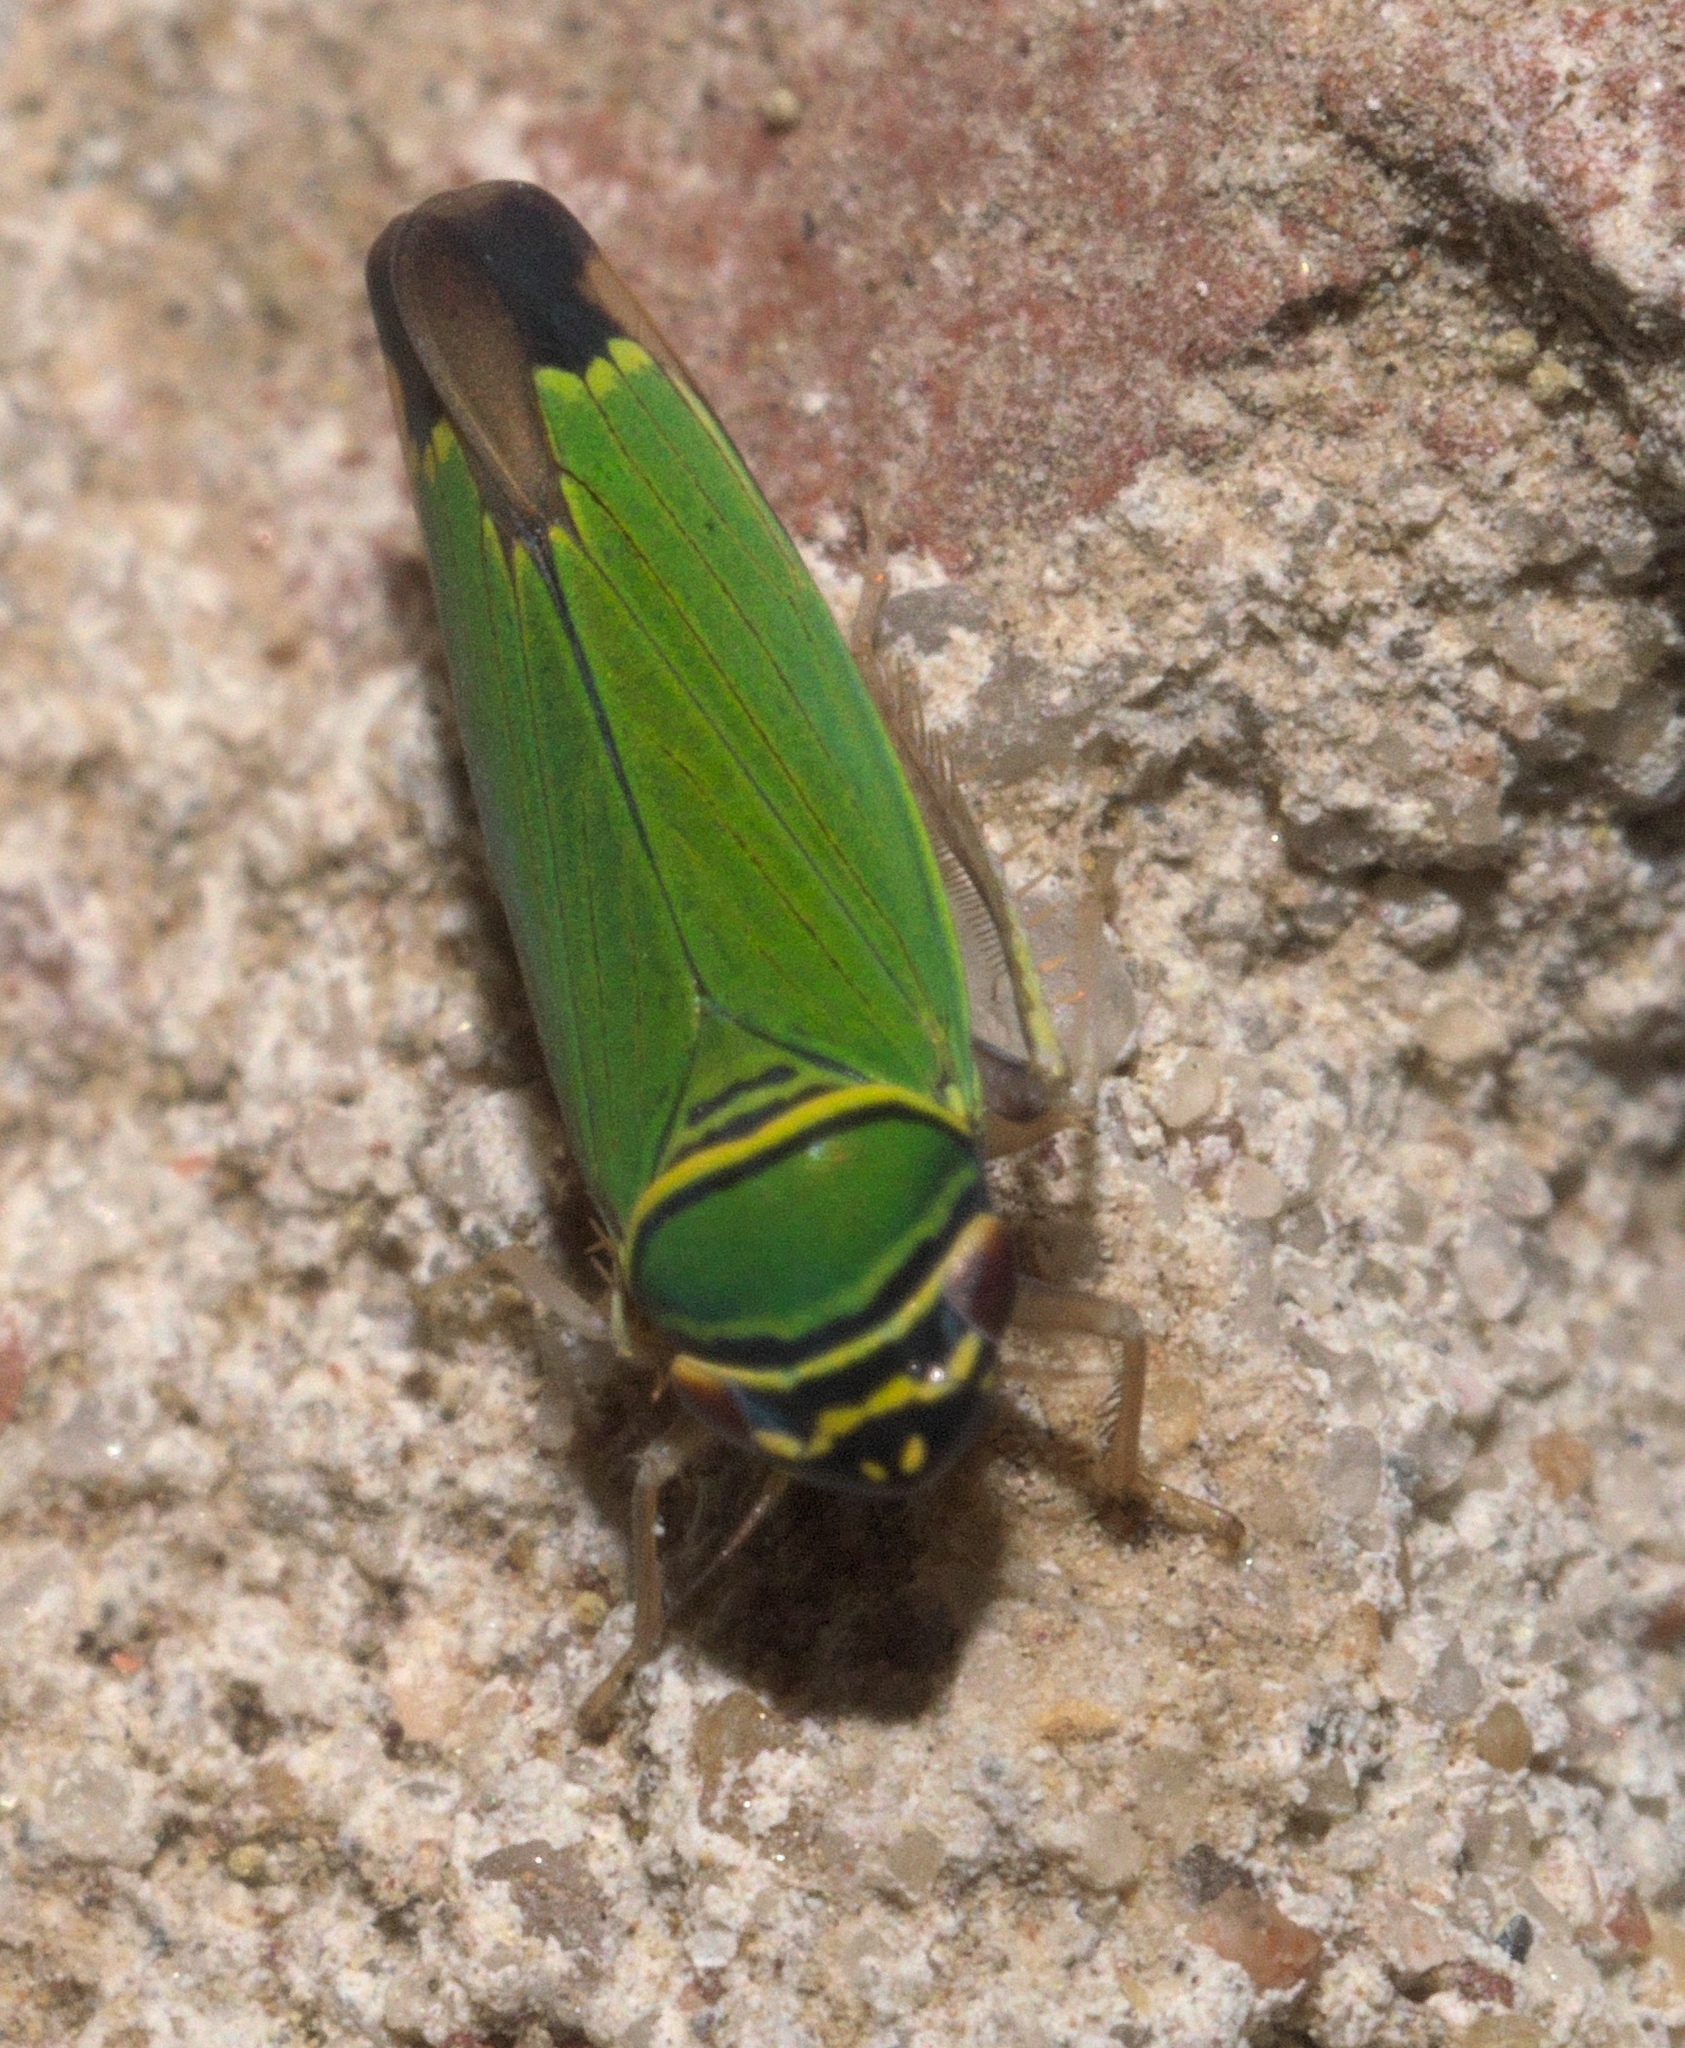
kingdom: Animalia
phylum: Arthropoda
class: Insecta
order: Hemiptera
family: Cicadellidae
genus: Tylozygus
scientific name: Tylozygus geometricus
